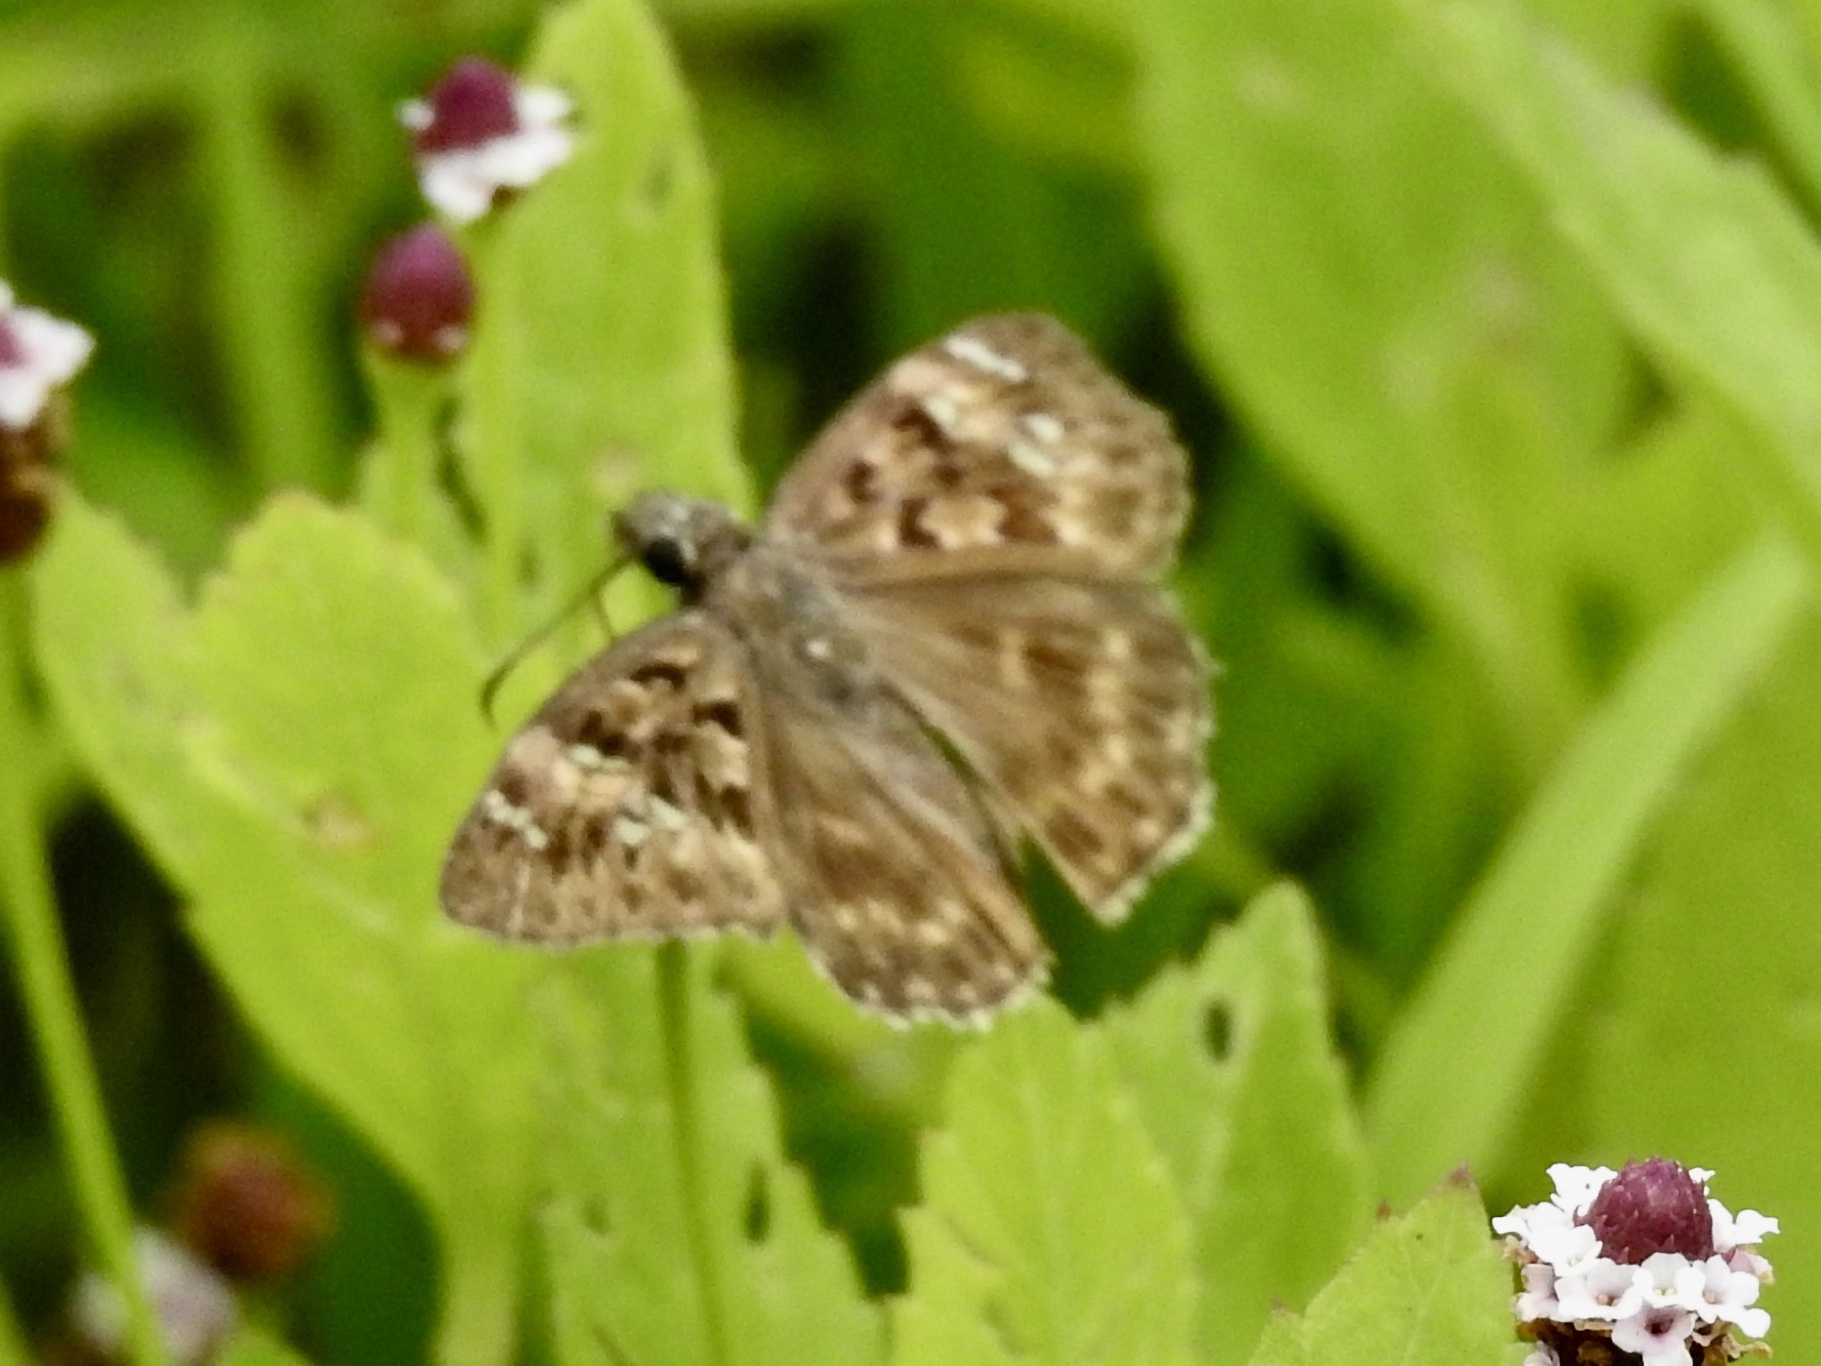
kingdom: Animalia
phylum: Arthropoda
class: Insecta
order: Lepidoptera
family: Hesperiidae
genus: Erynnis
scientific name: Erynnis horatius
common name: Horace's duskywing
